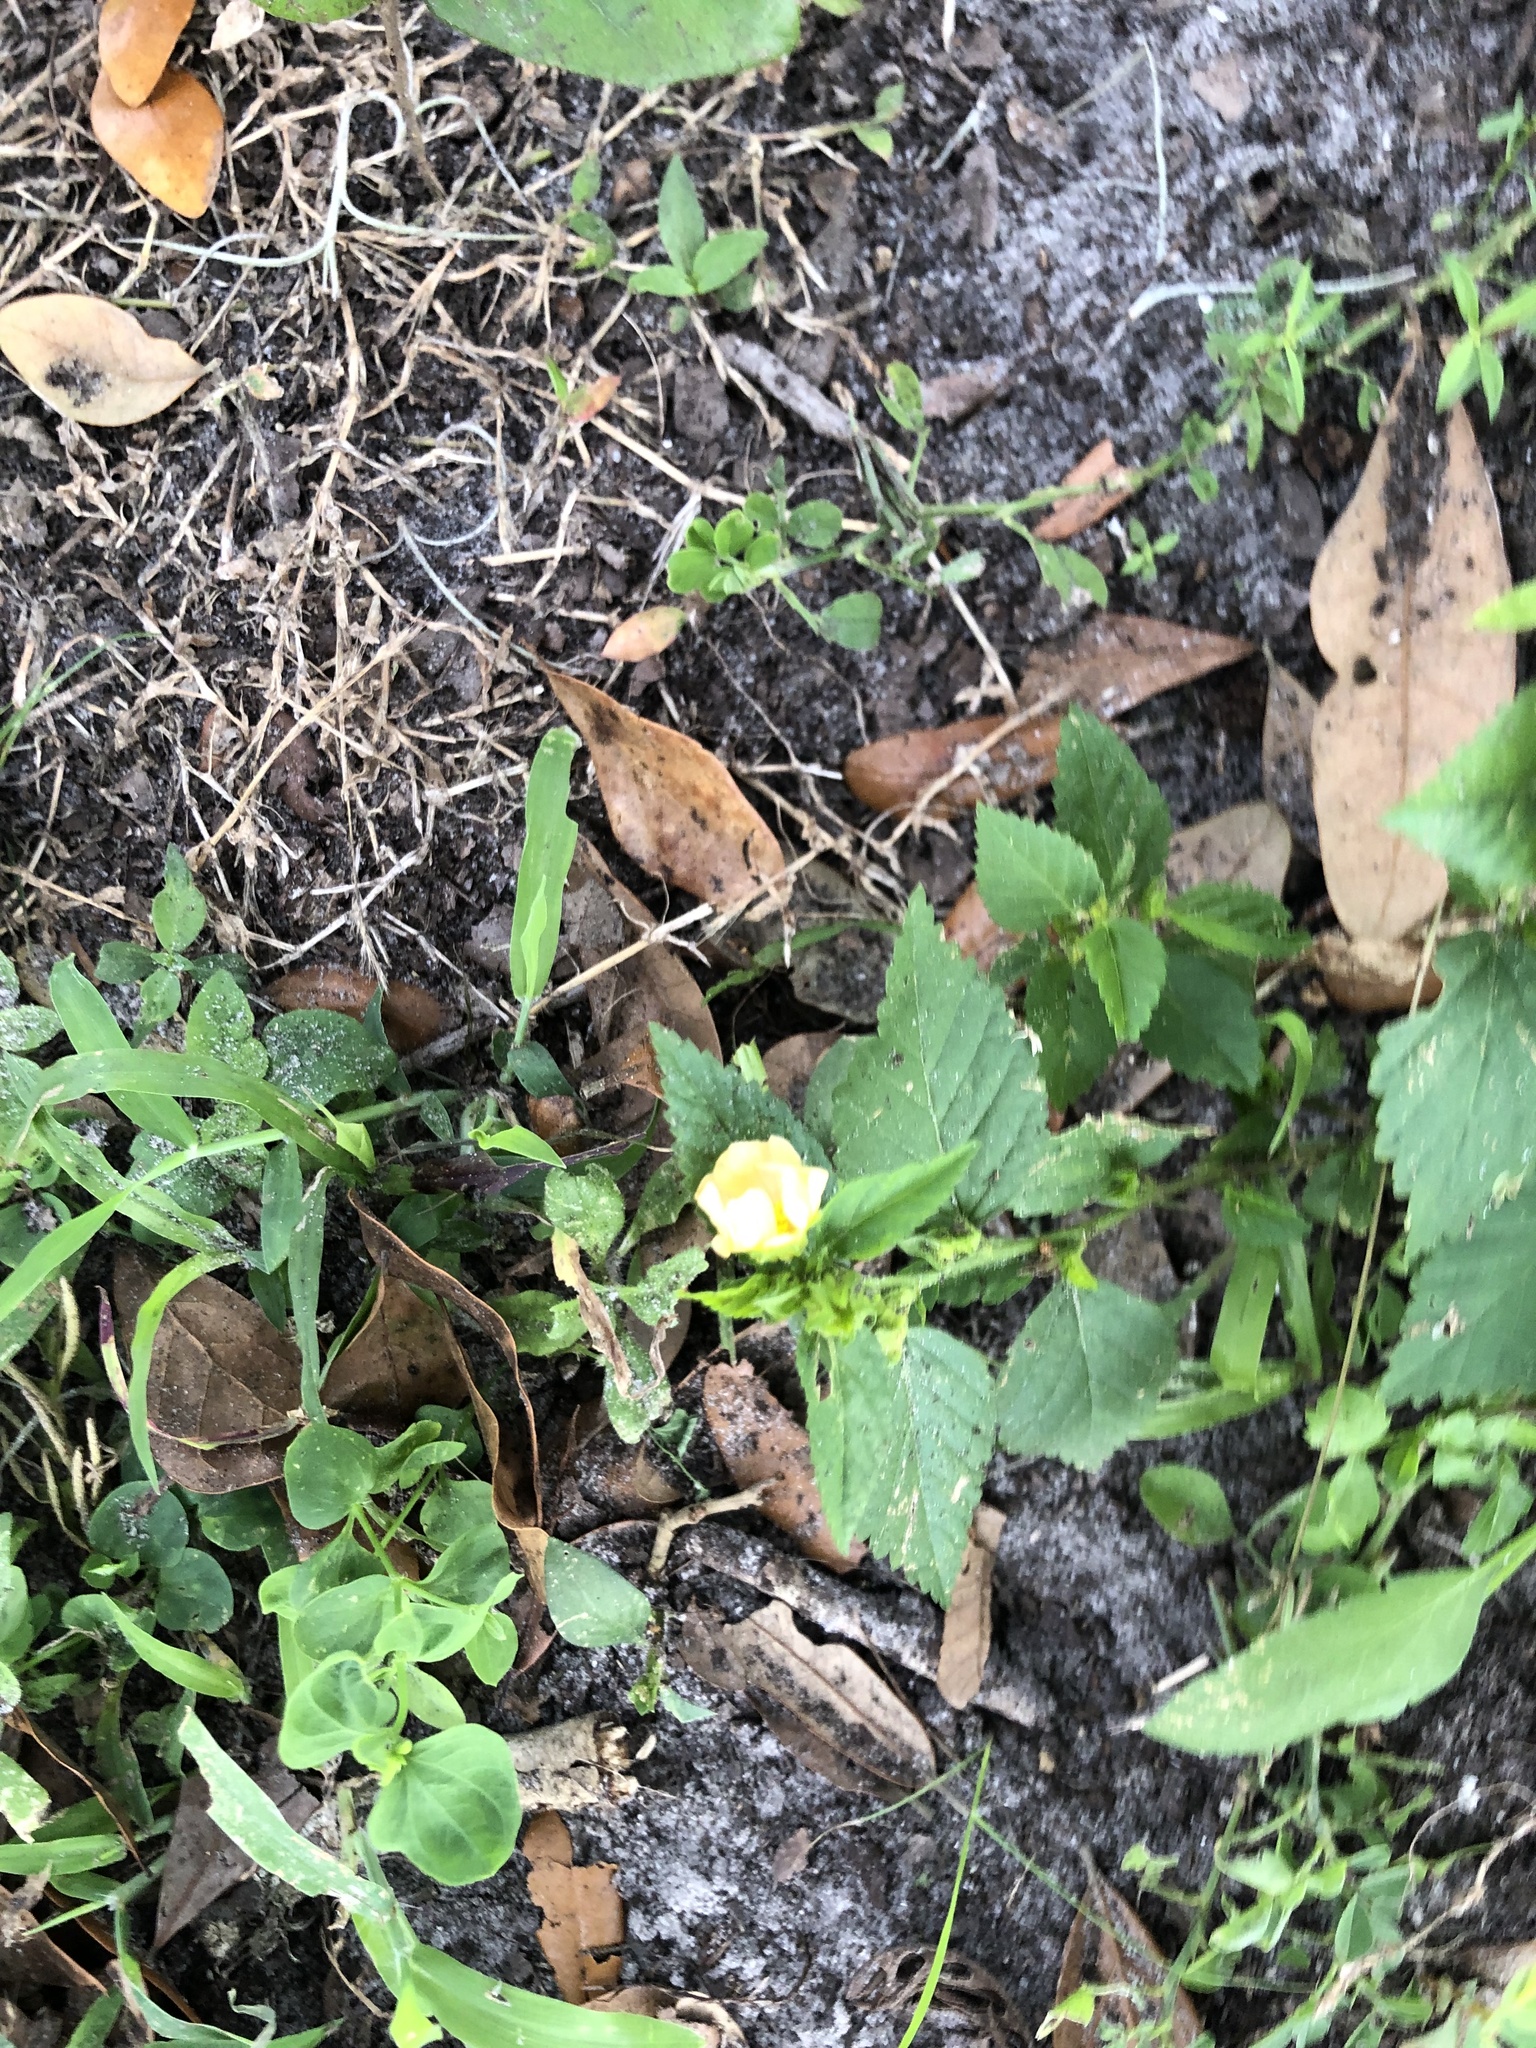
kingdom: Plantae
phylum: Tracheophyta
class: Magnoliopsida
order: Malvales
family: Malvaceae
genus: Sida
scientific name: Sida ulmifolia
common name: Broom weed
